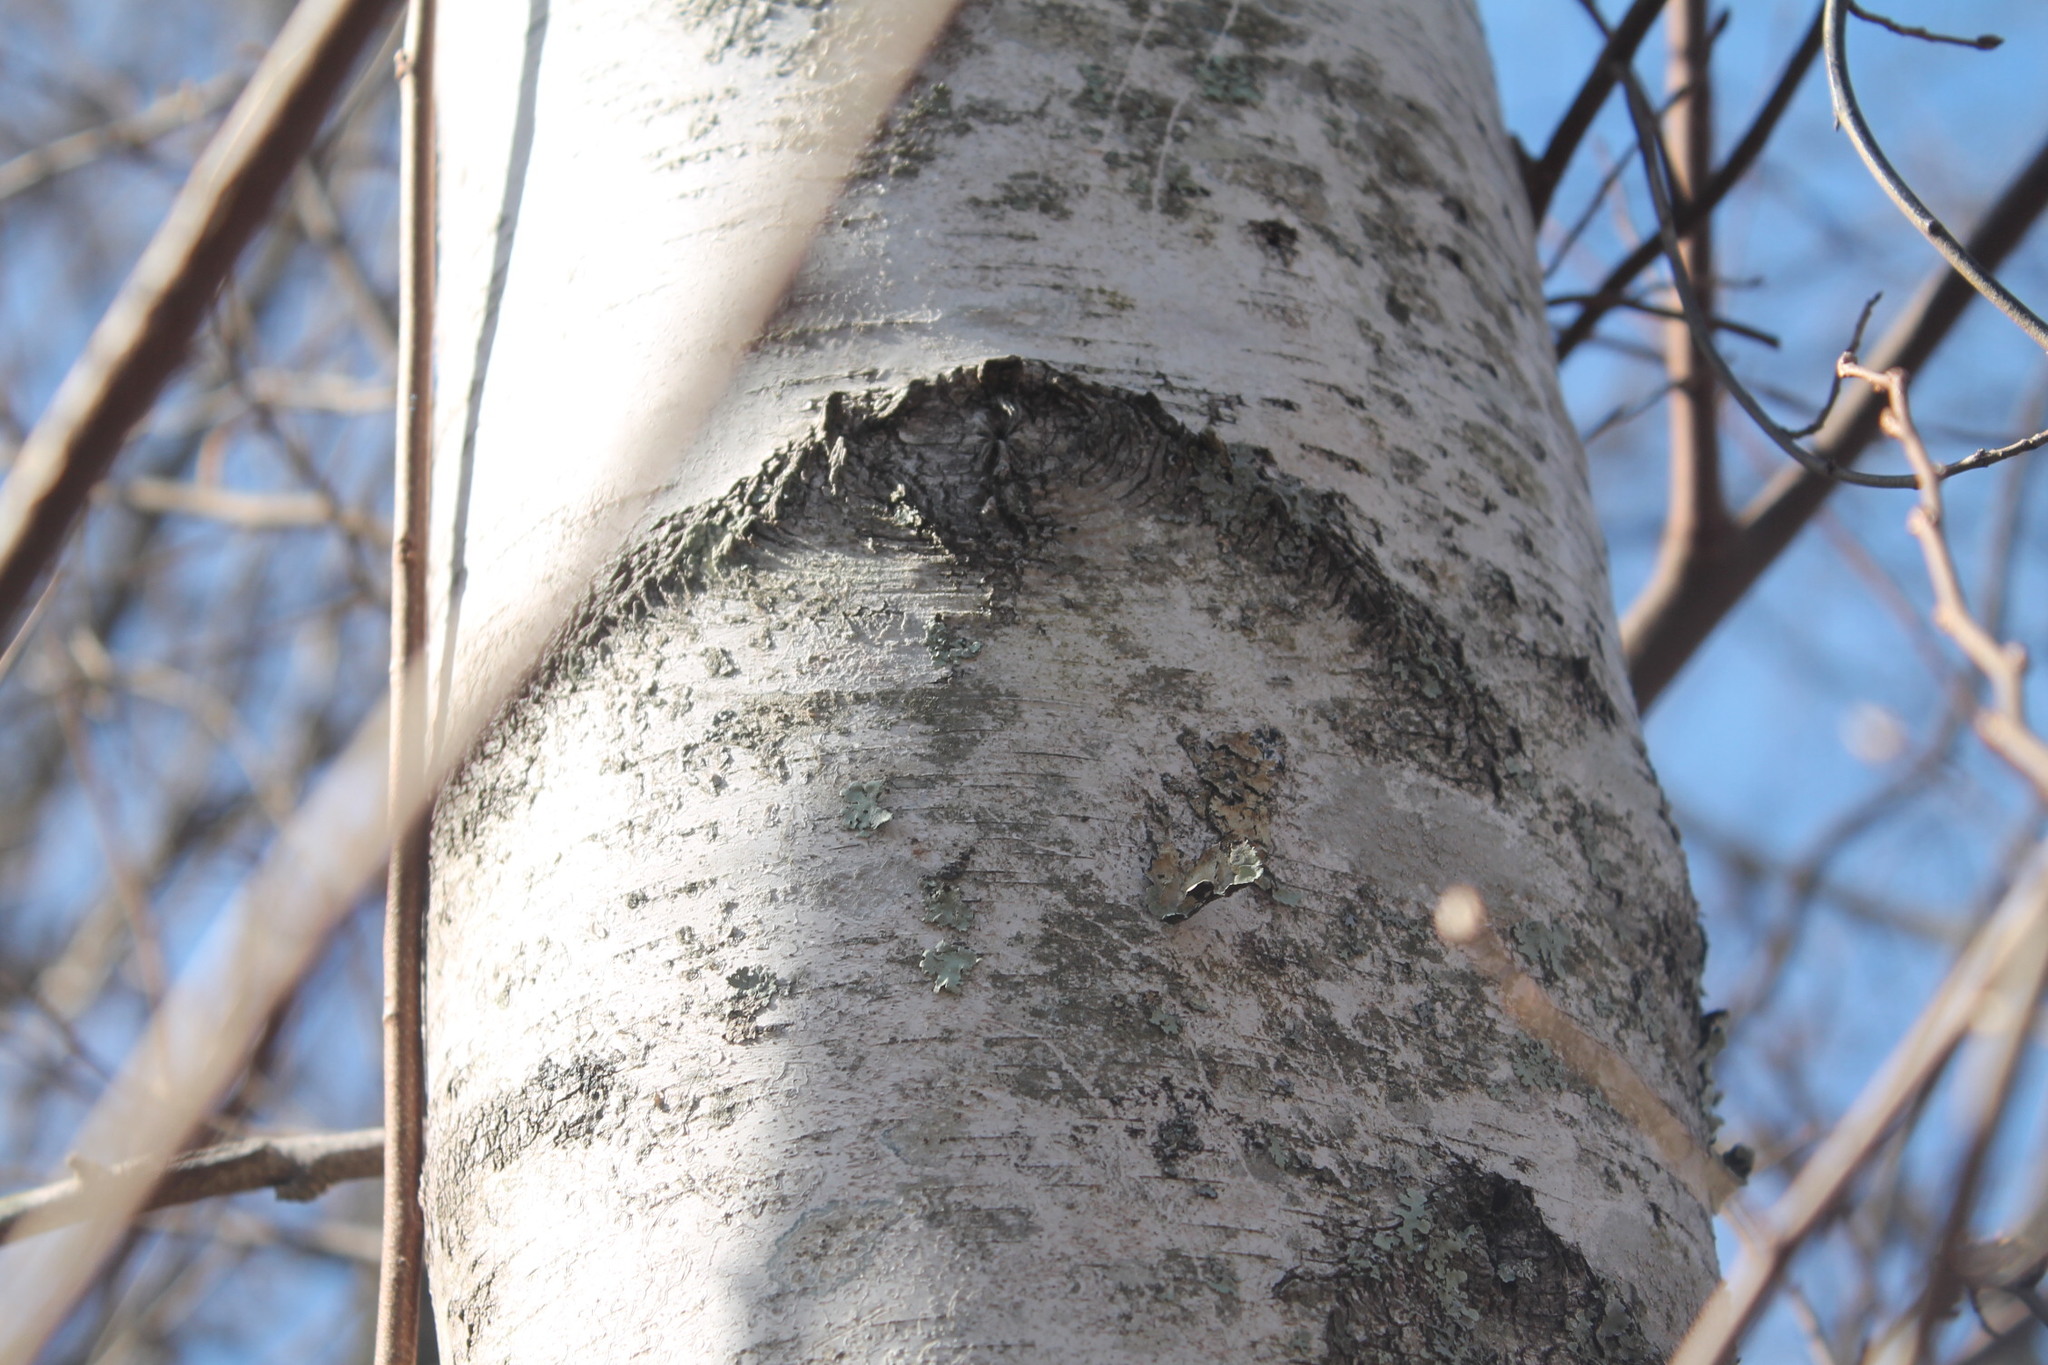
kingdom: Plantae
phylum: Tracheophyta
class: Magnoliopsida
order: Fagales
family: Betulaceae
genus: Betula
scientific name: Betula populifolia
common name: Fire birch
